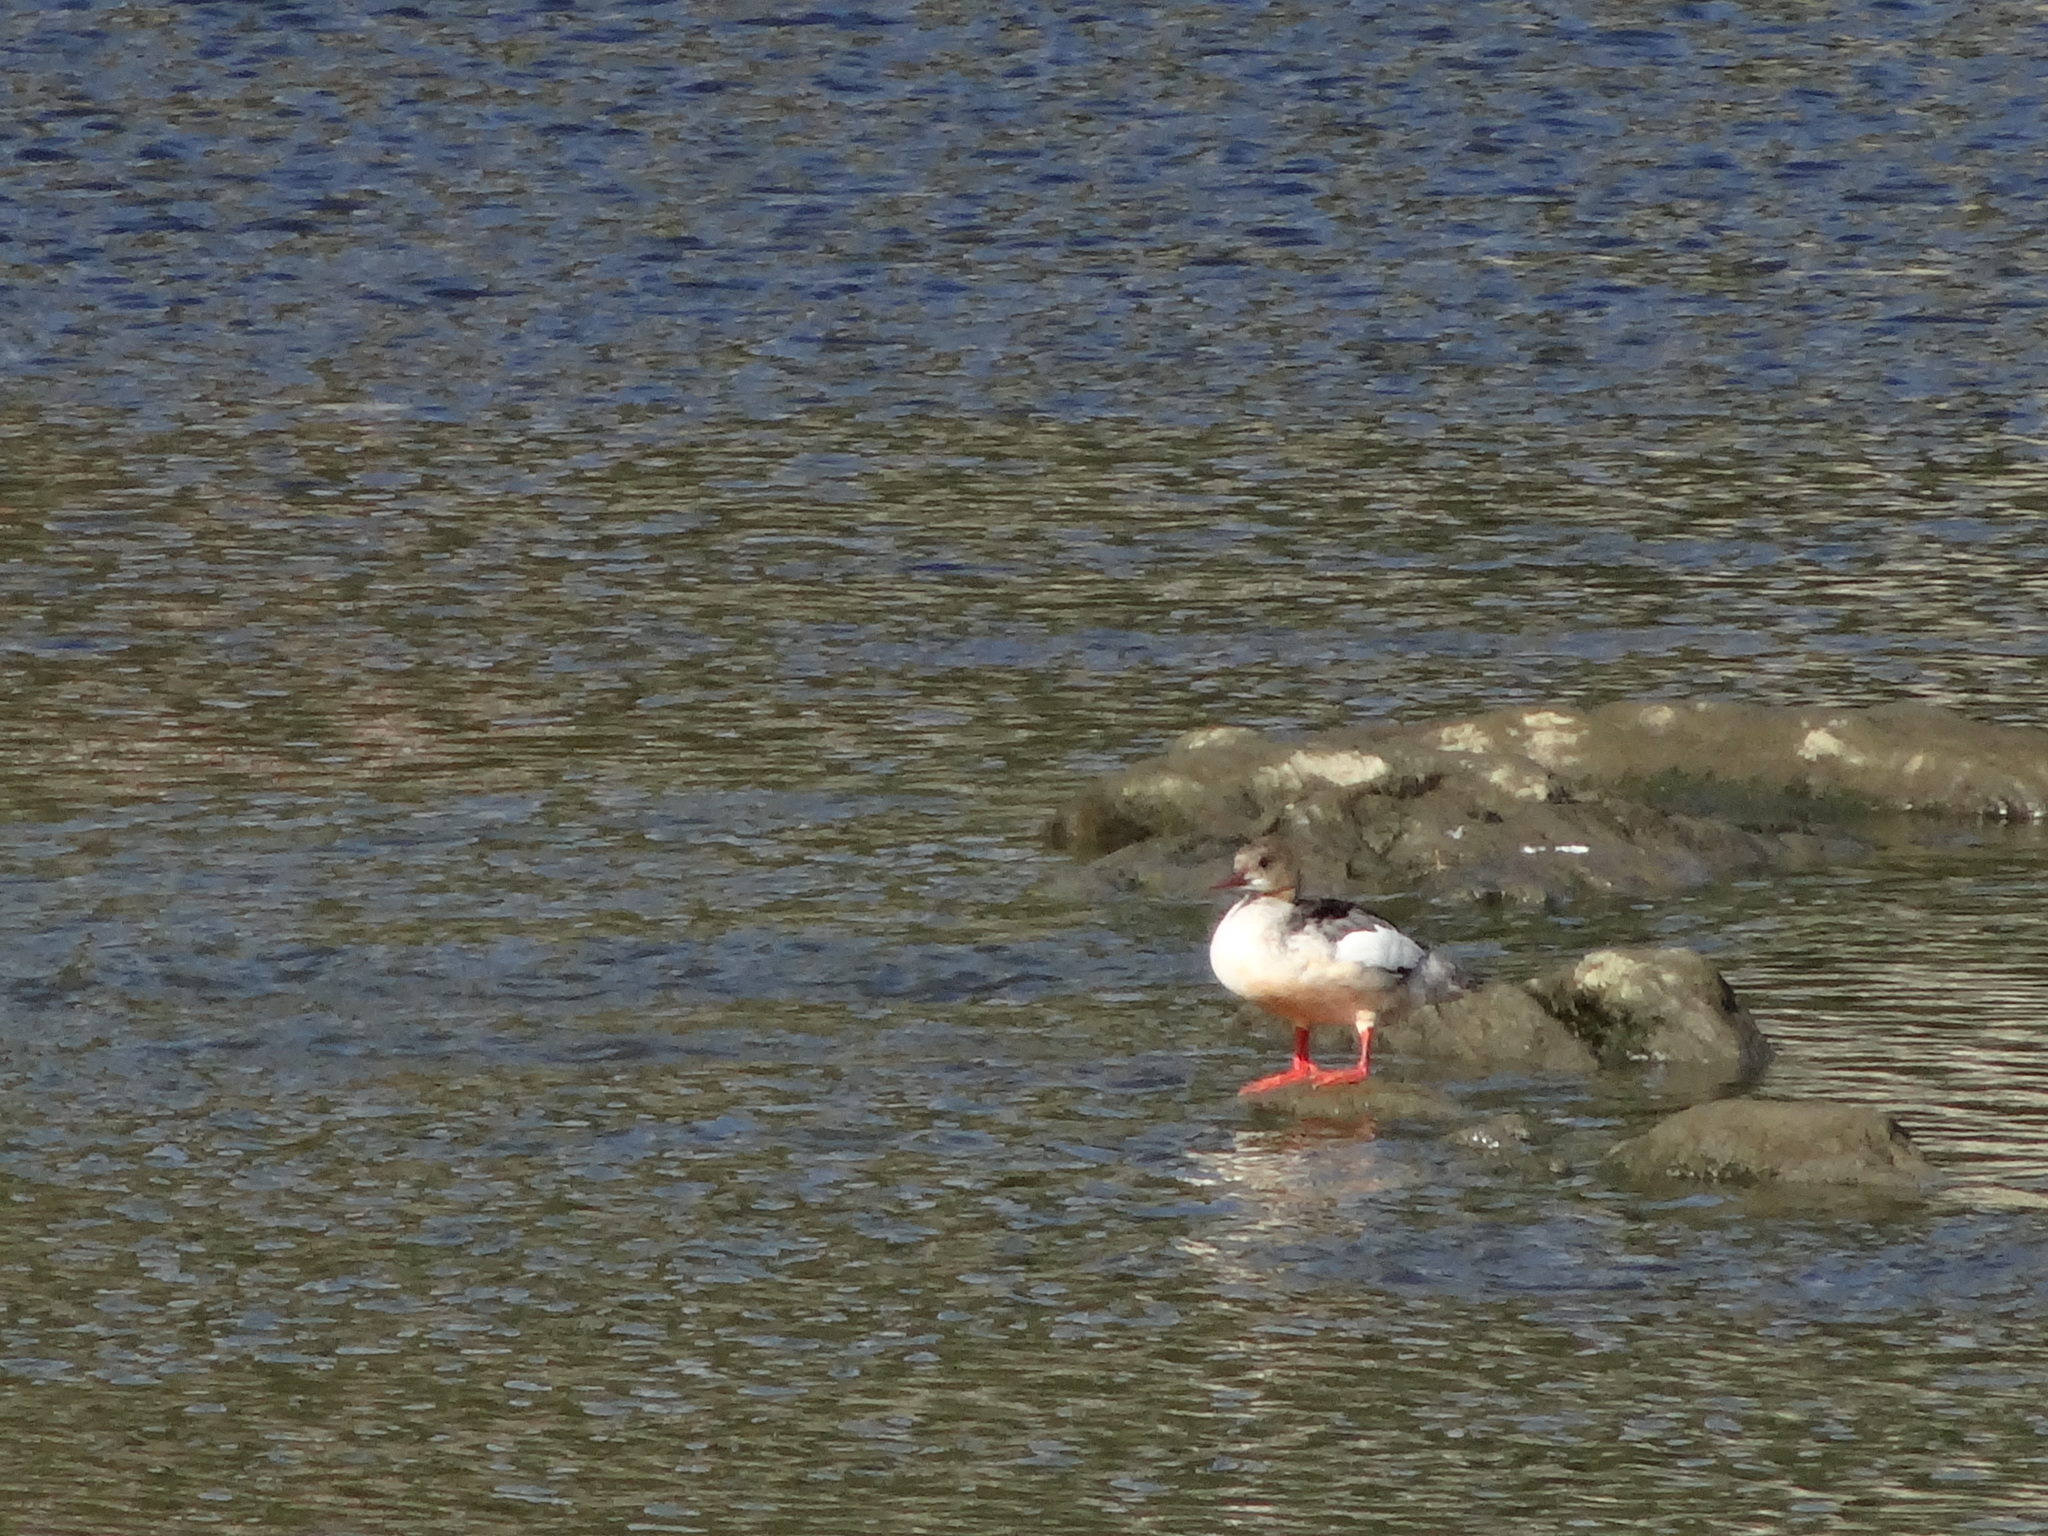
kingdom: Animalia
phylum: Chordata
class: Aves
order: Anseriformes
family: Anatidae
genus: Mergus
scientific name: Mergus merganser
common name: Common merganser
